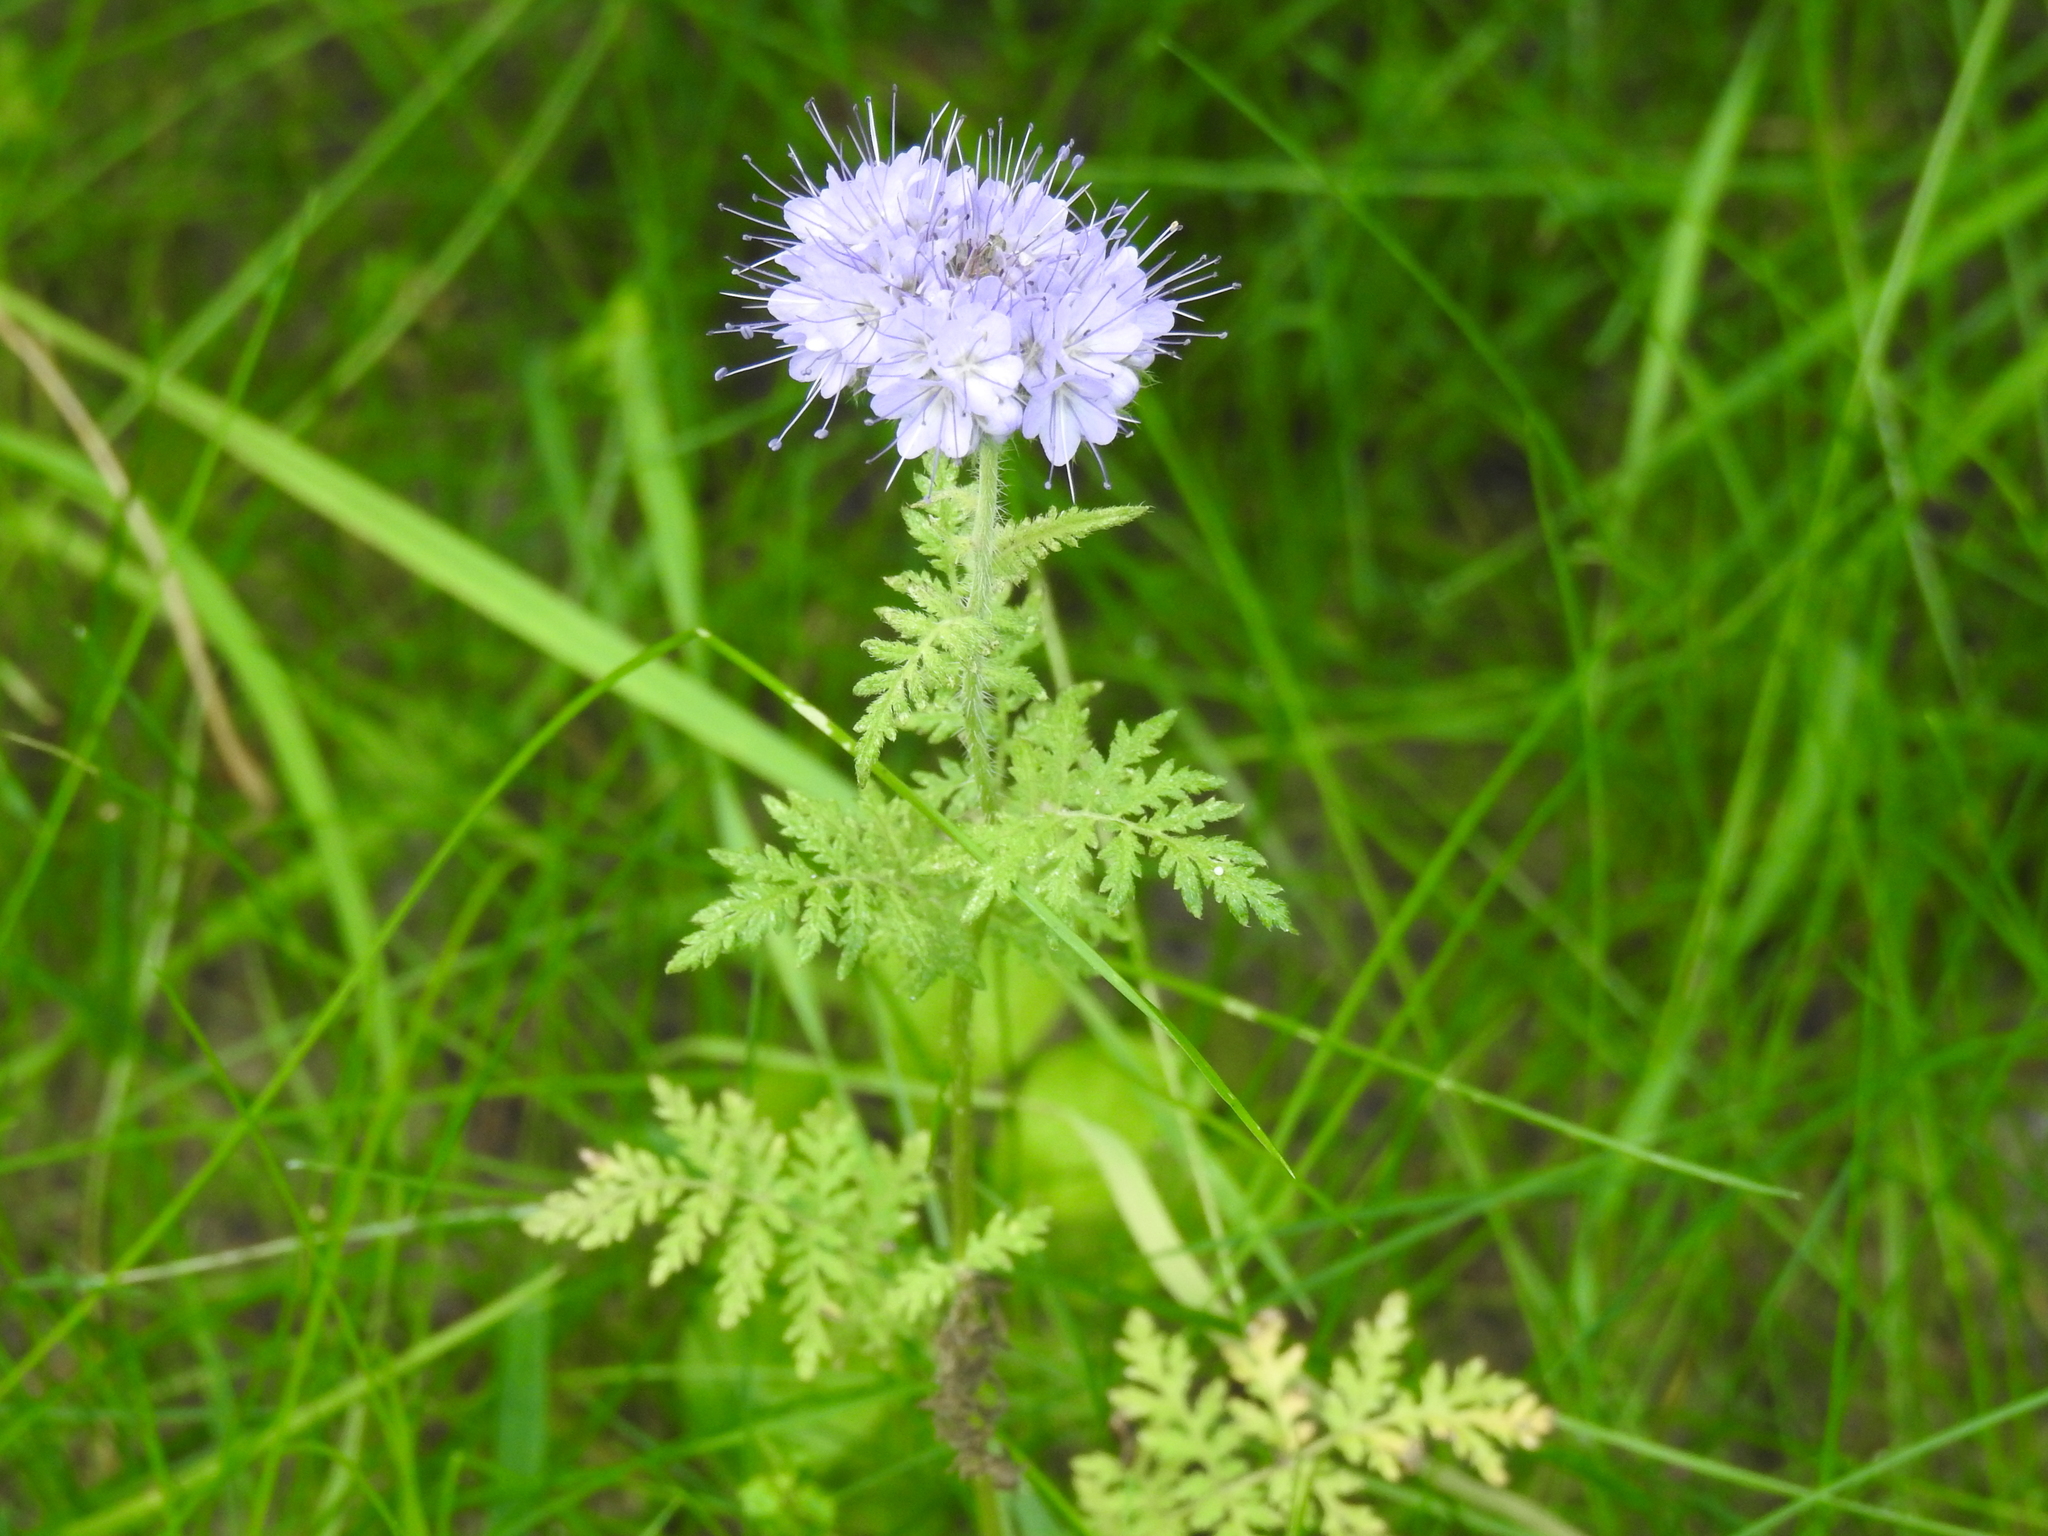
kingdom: Plantae
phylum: Tracheophyta
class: Magnoliopsida
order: Boraginales
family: Hydrophyllaceae
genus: Phacelia
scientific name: Phacelia tanacetifolia
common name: Phacelia
